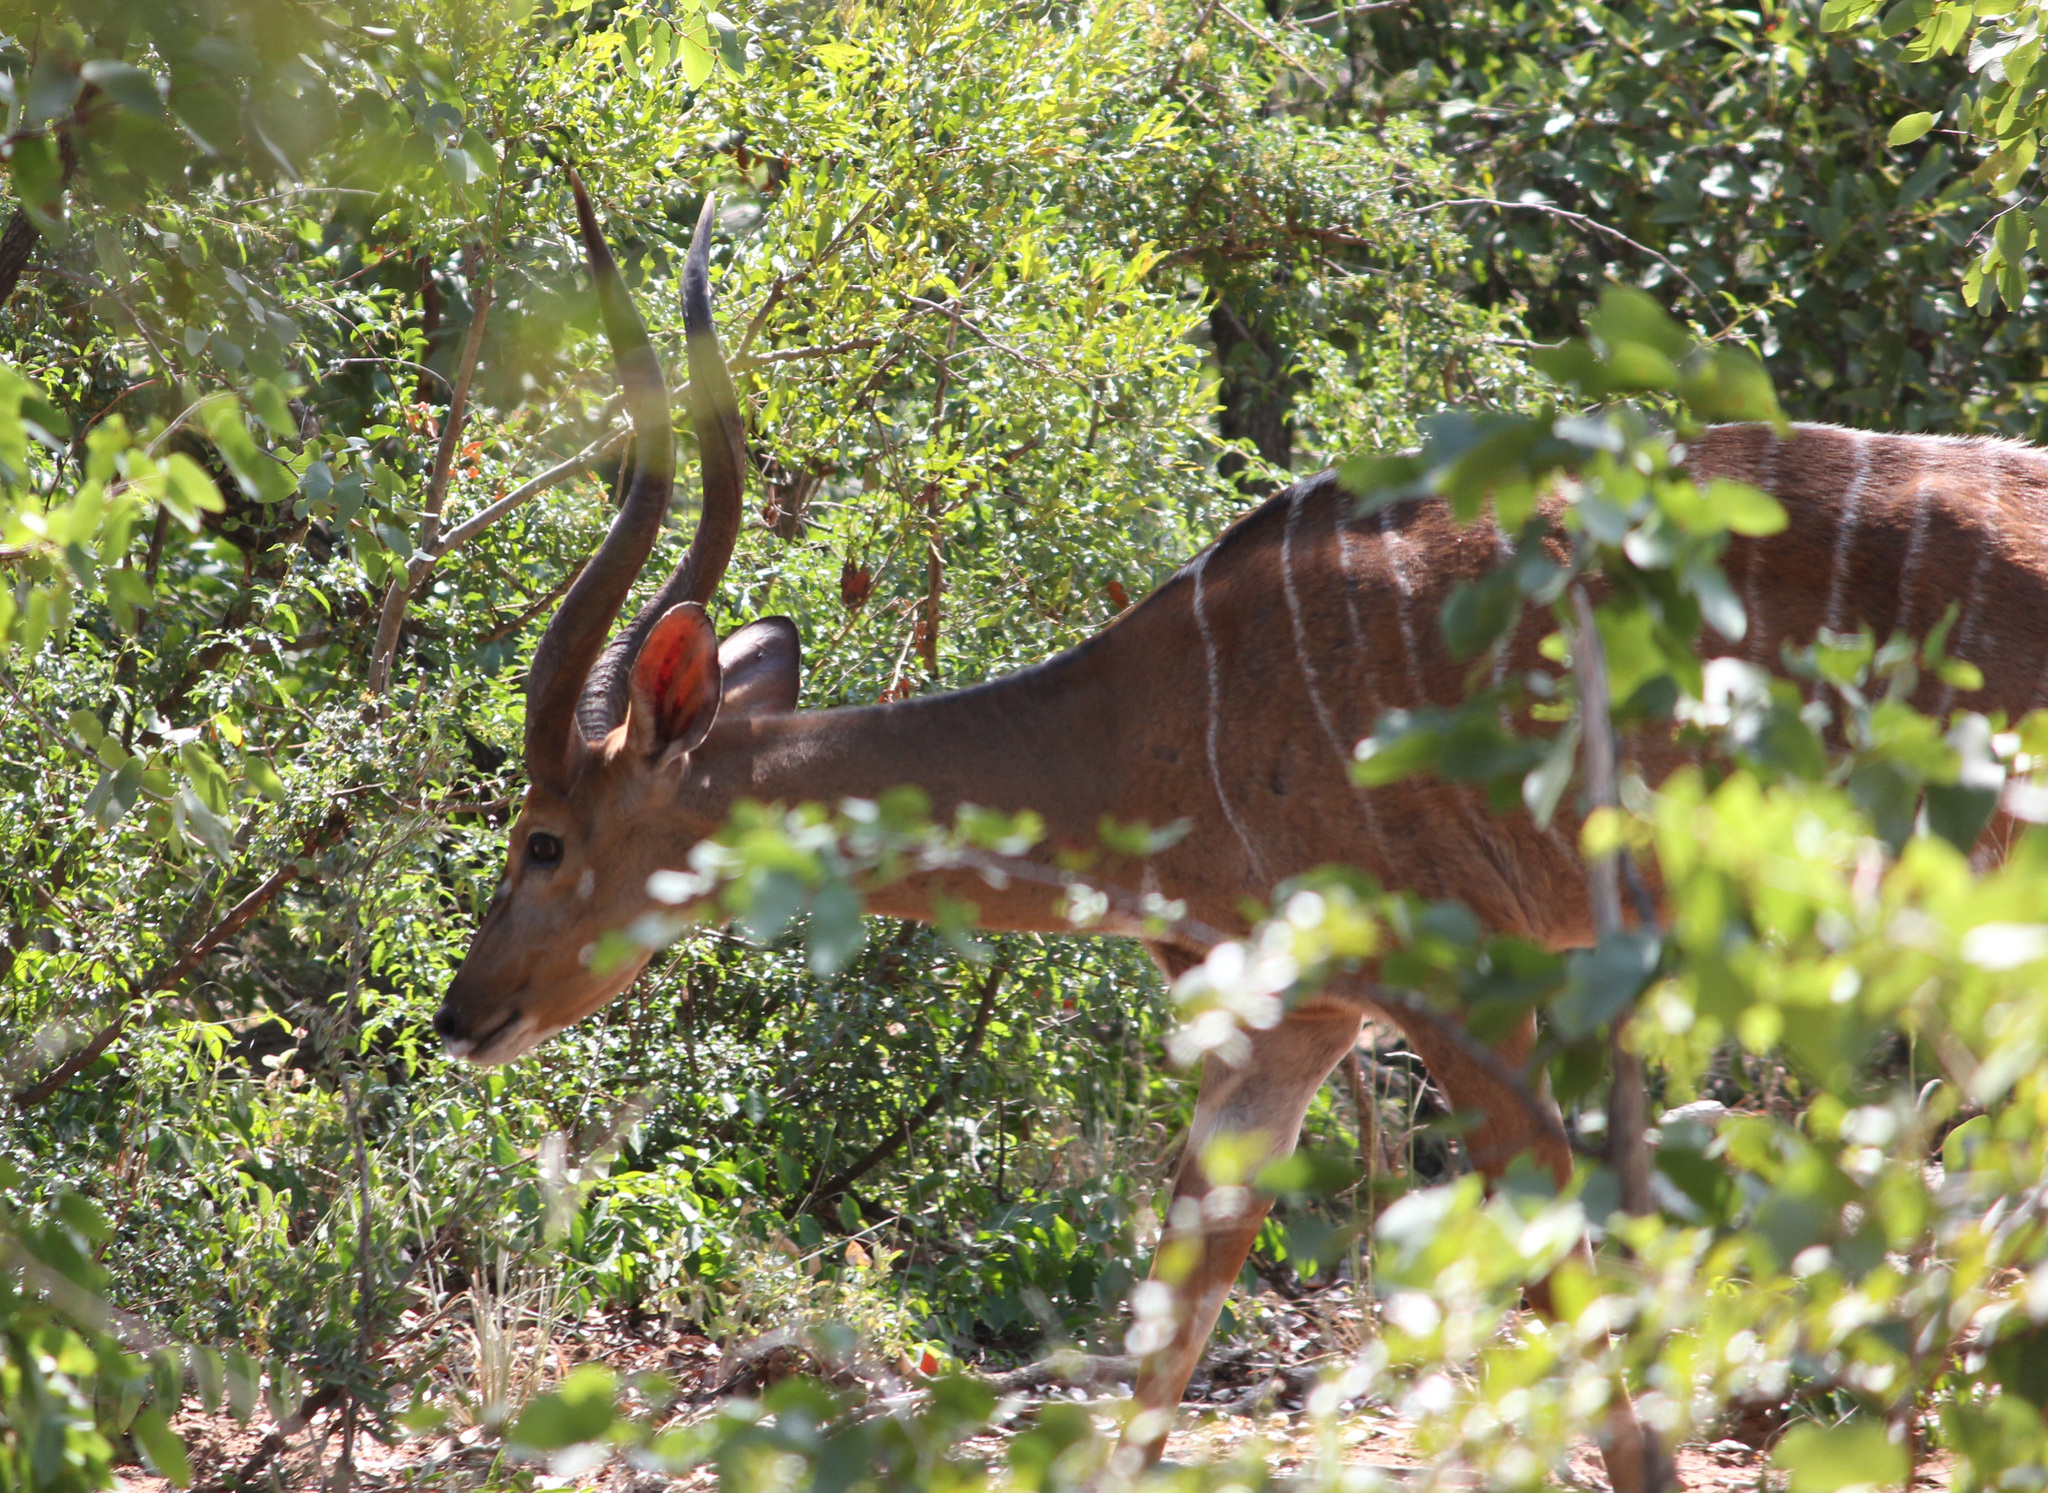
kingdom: Animalia
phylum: Chordata
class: Mammalia
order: Artiodactyla
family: Bovidae
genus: Tragelaphus
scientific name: Tragelaphus angasii
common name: Nyala
